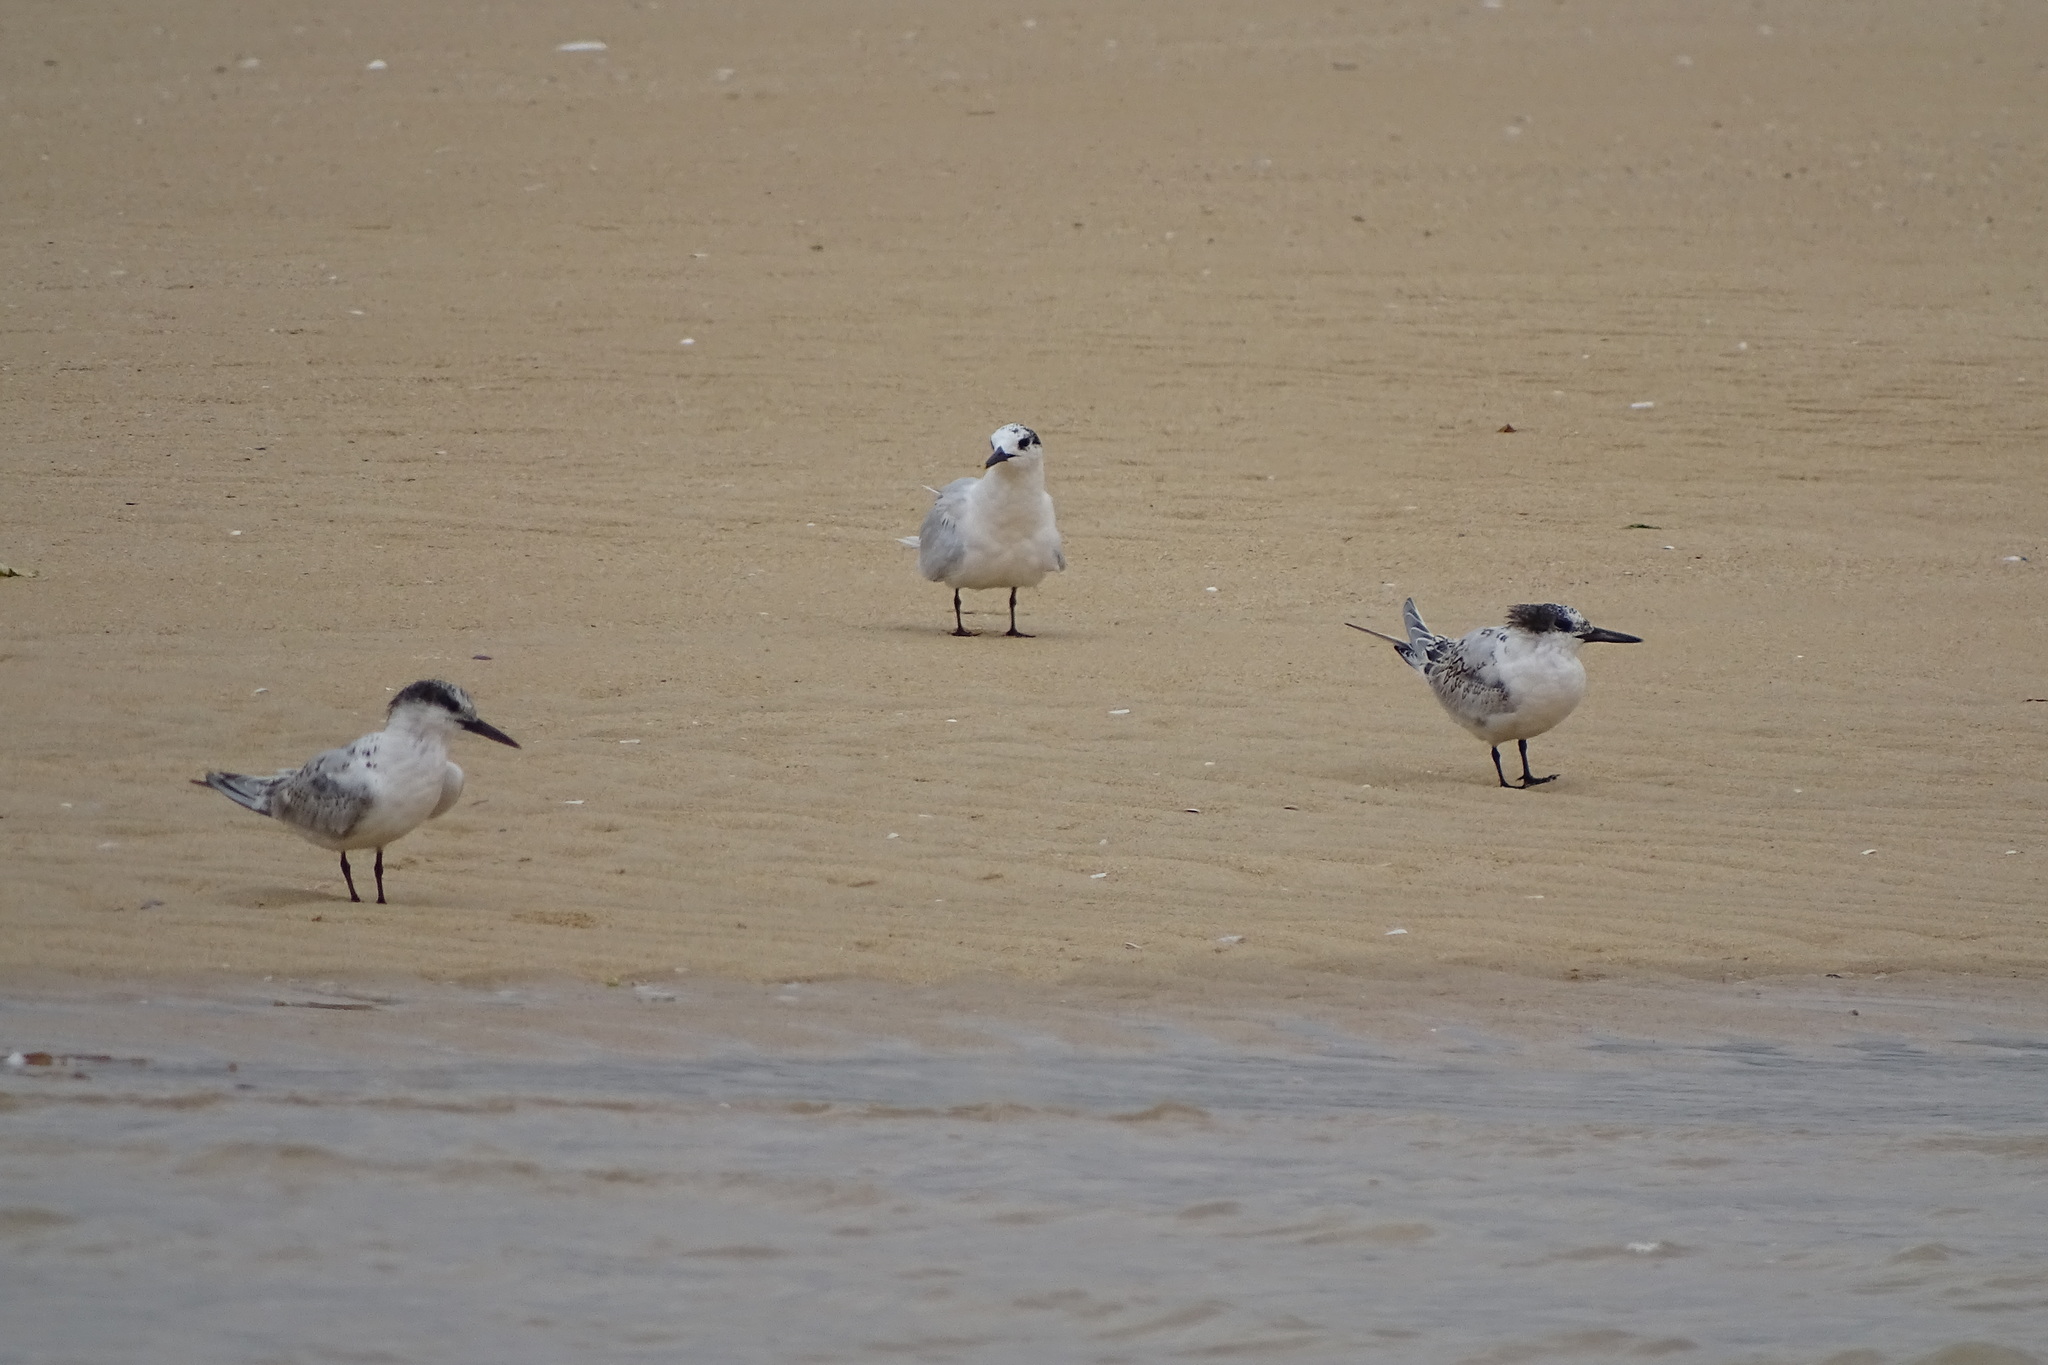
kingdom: Animalia
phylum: Chordata
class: Aves
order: Charadriiformes
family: Laridae
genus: Thalasseus
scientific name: Thalasseus sandvicensis
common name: Sandwich tern
